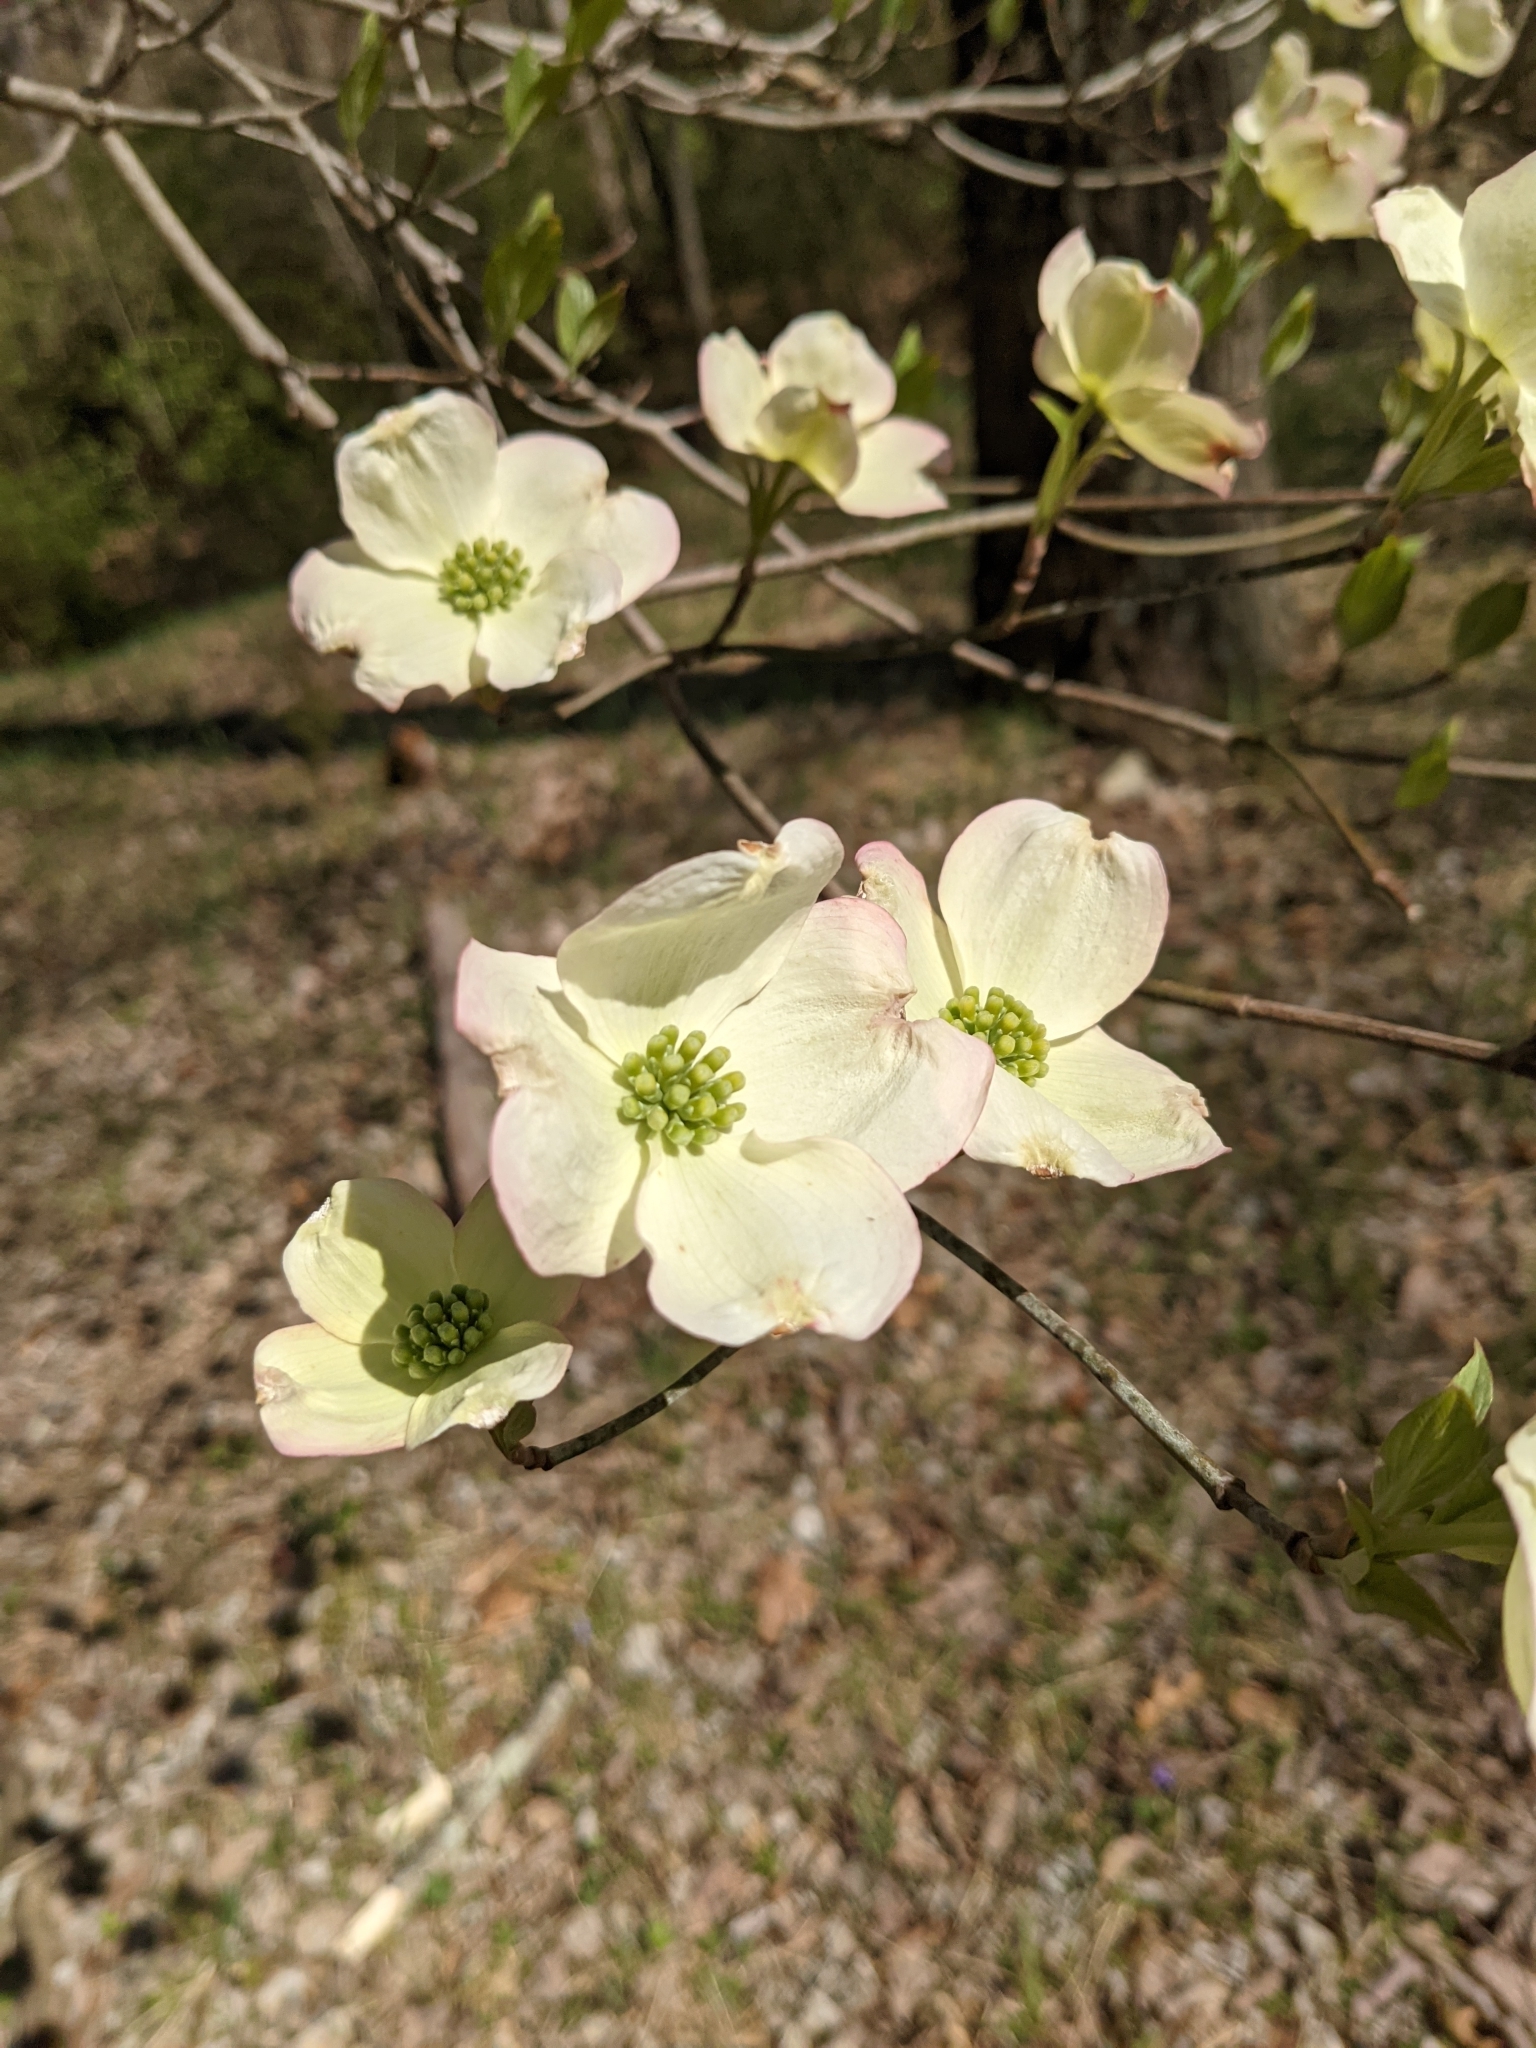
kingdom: Plantae
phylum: Tracheophyta
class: Magnoliopsida
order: Cornales
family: Cornaceae
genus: Cornus
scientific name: Cornus florida
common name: Flowering dogwood
